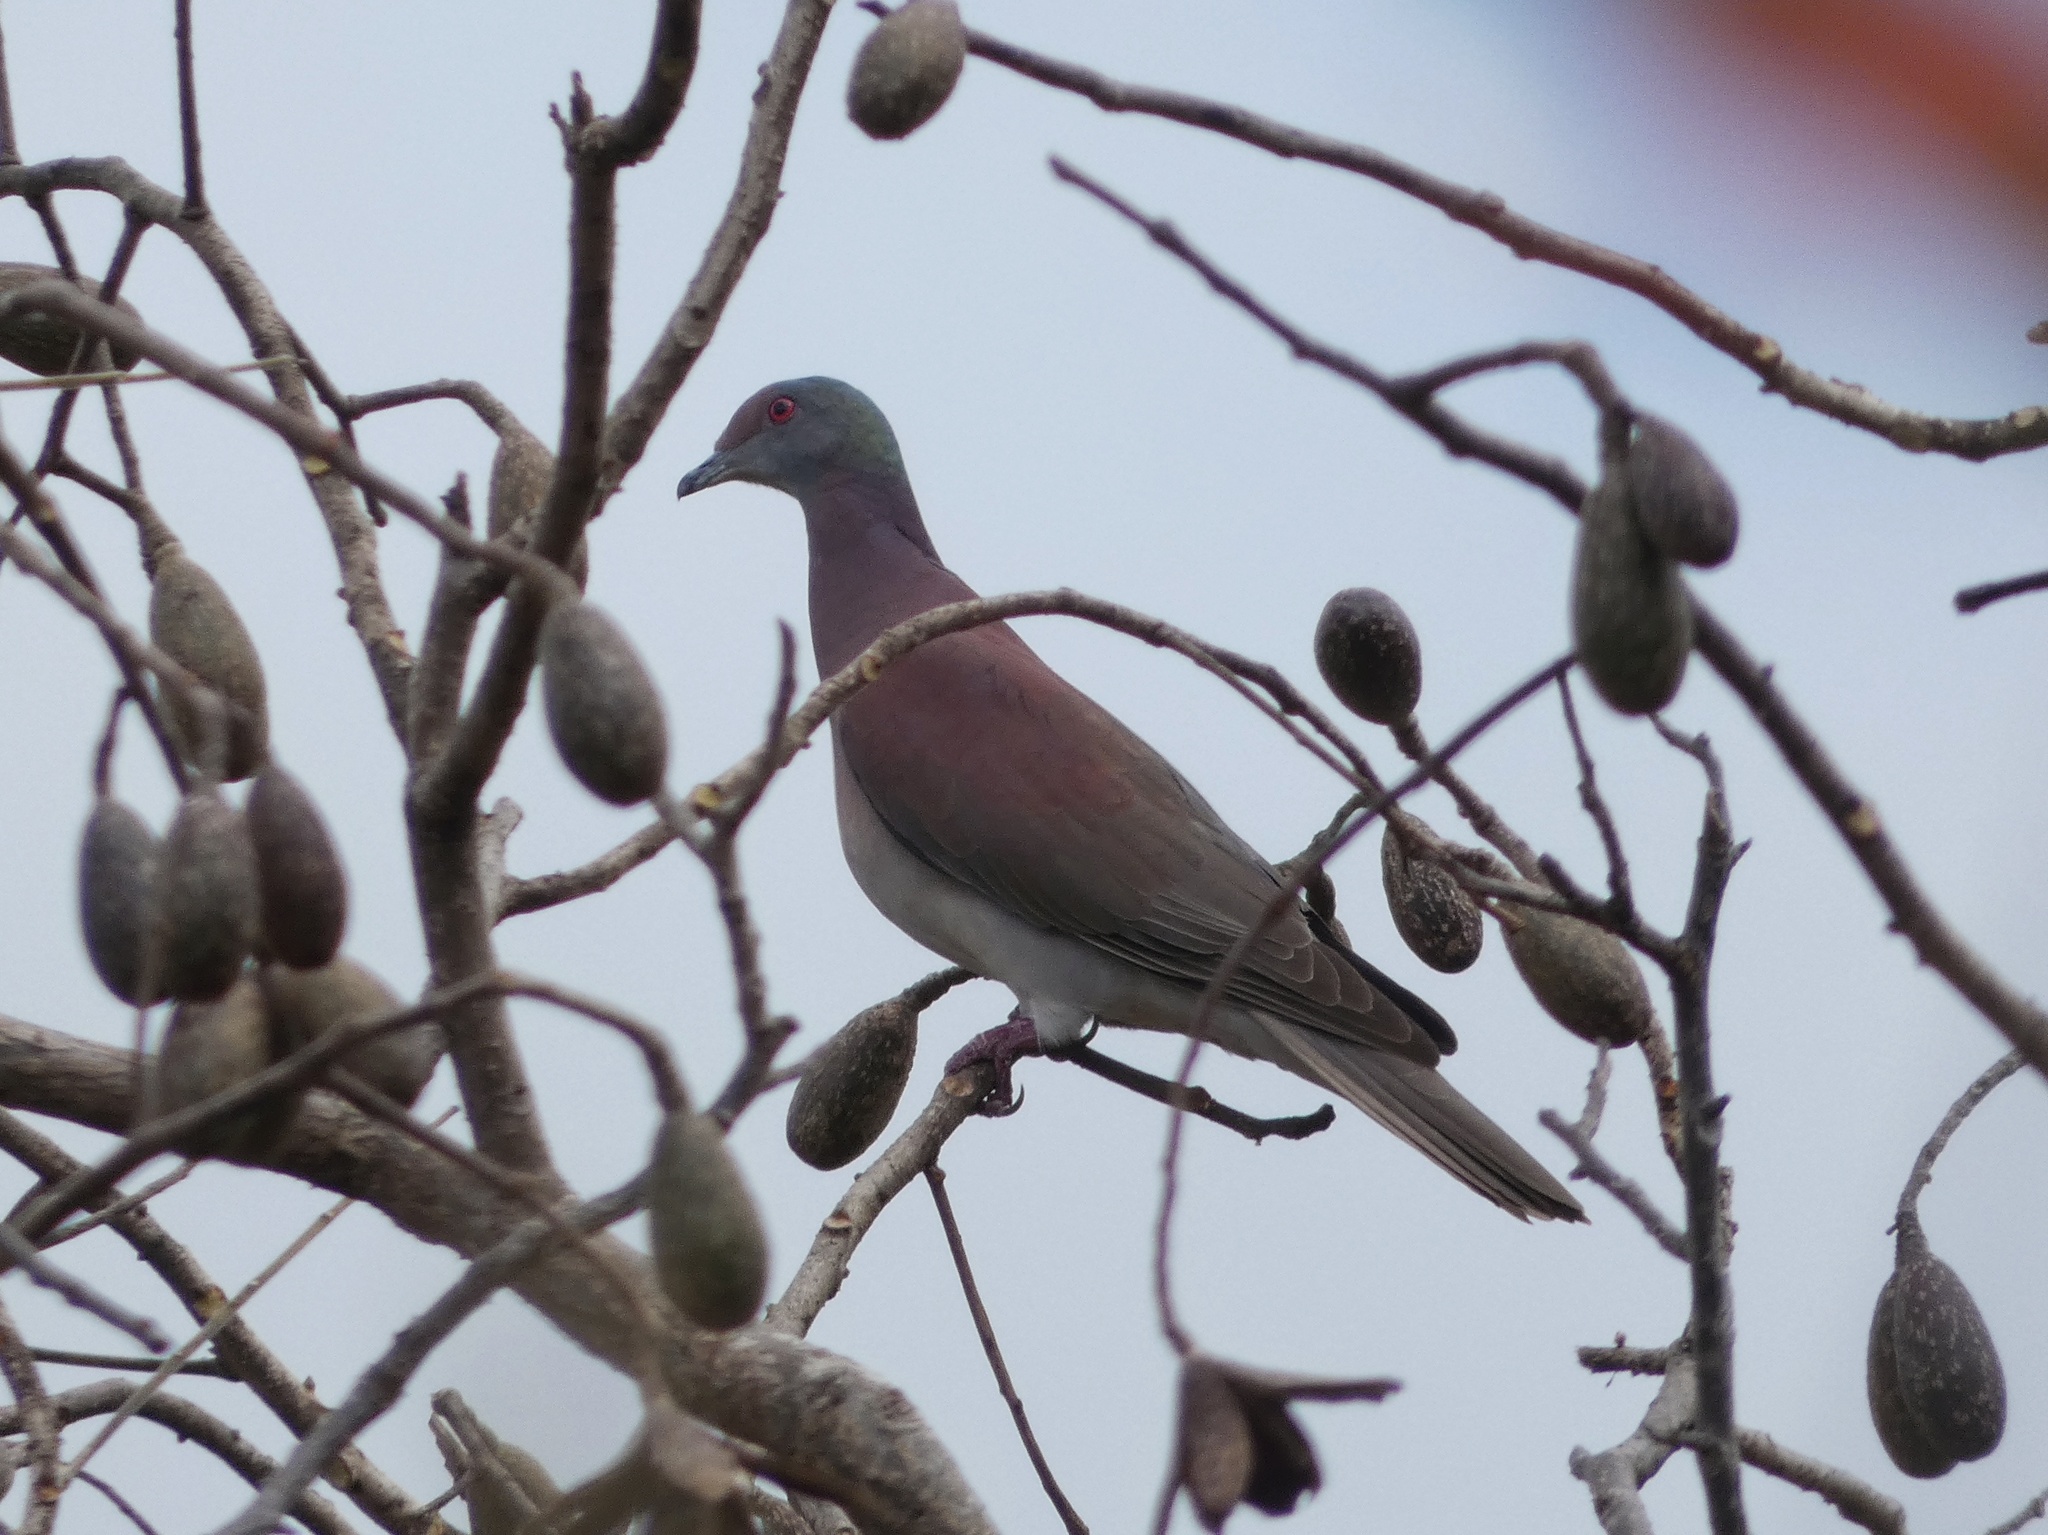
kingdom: Animalia
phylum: Chordata
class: Aves
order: Columbiformes
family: Columbidae
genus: Patagioenas
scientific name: Patagioenas cayennensis
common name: Pale-vented pigeon
